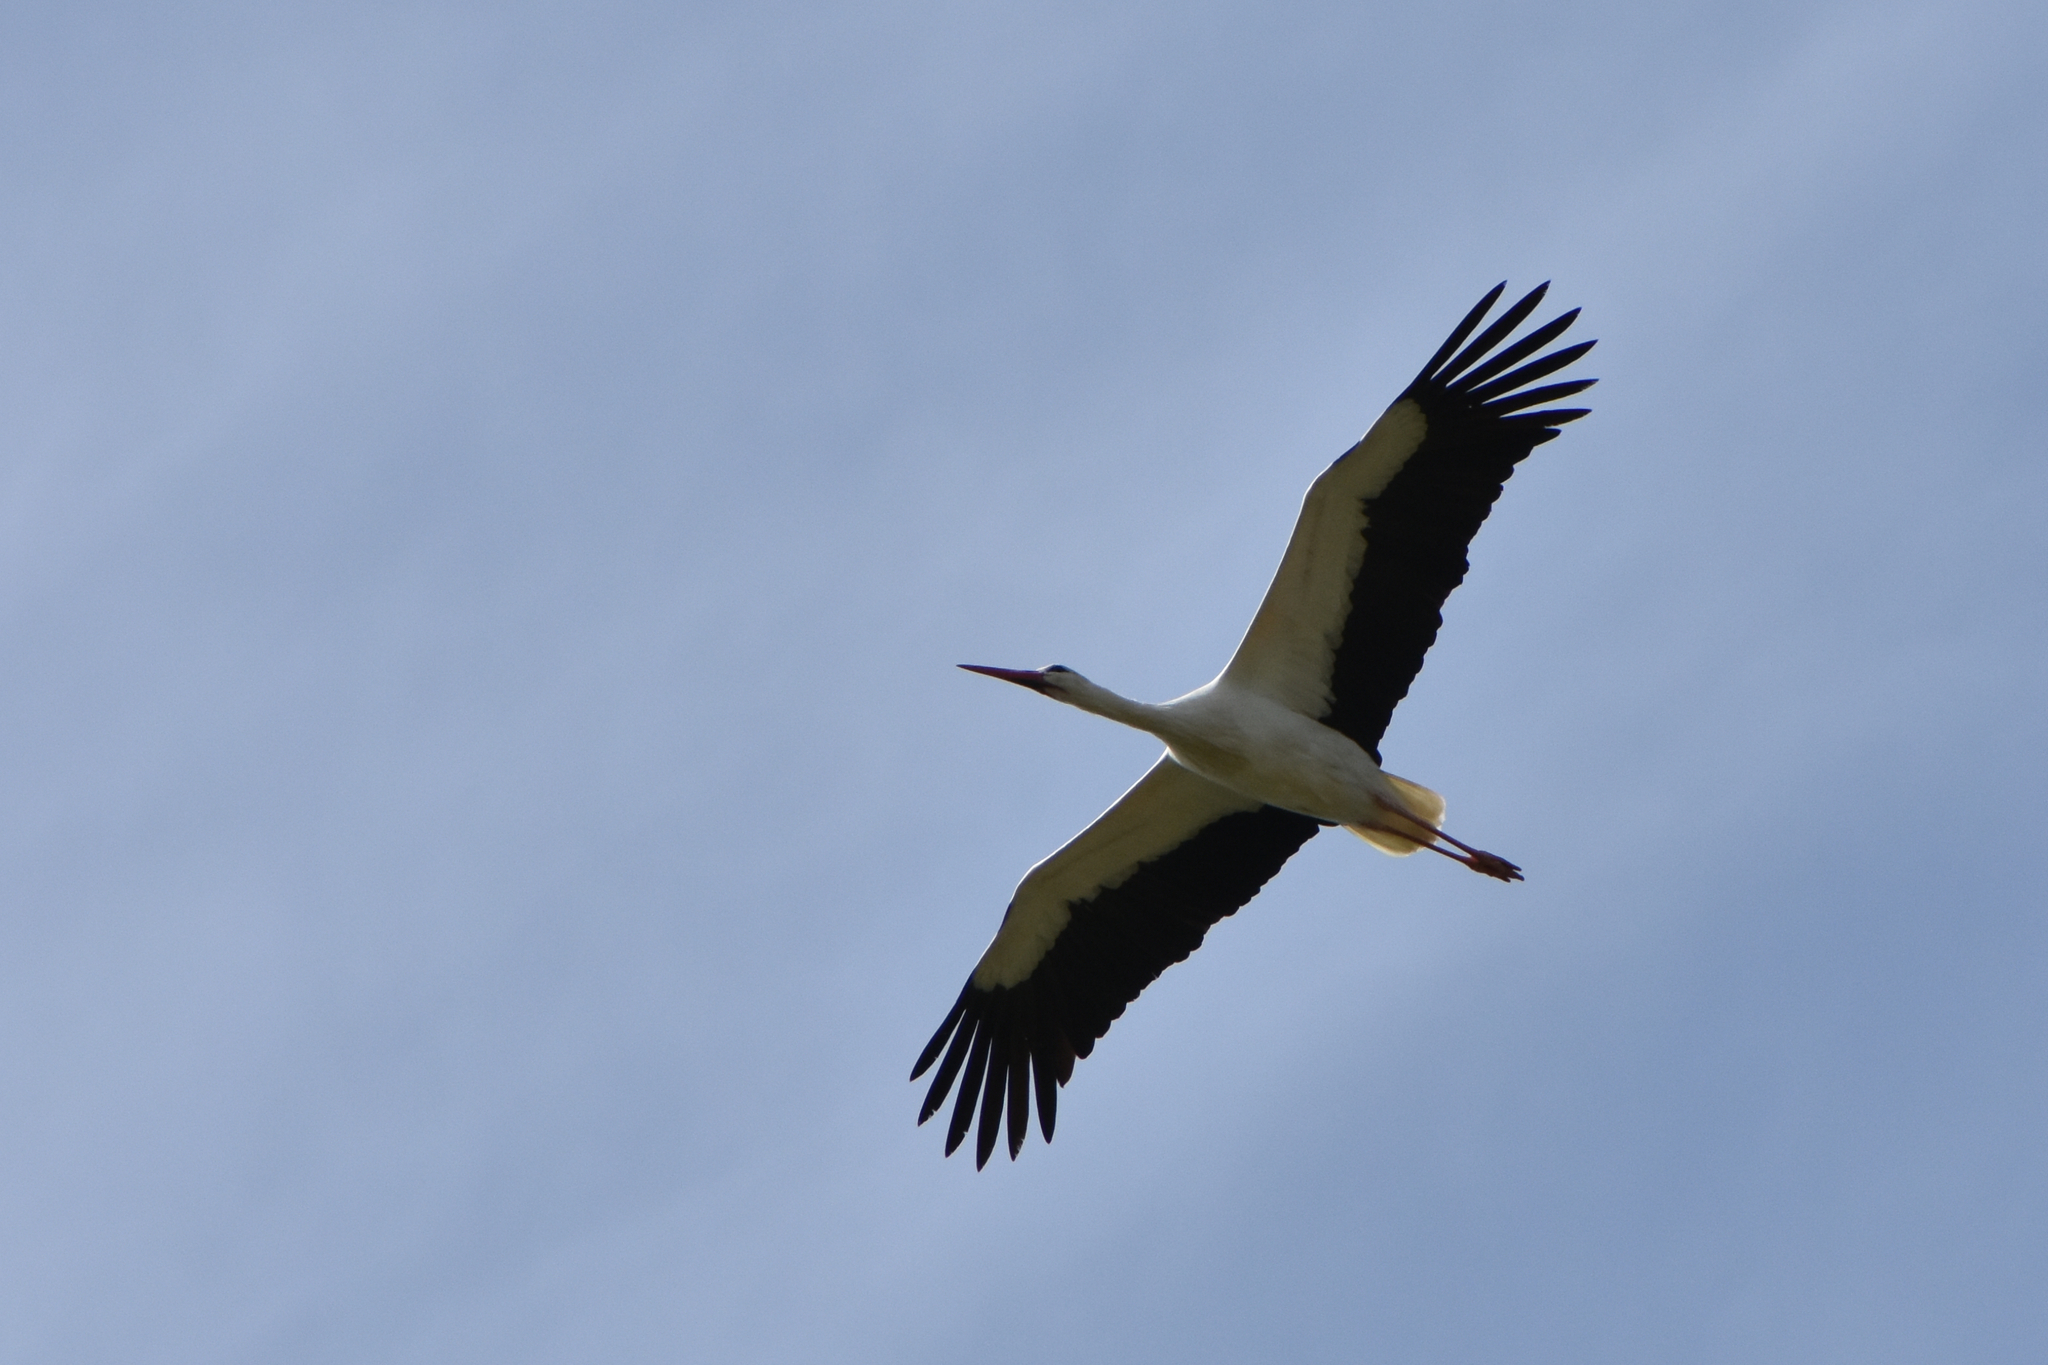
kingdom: Animalia
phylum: Chordata
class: Aves
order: Ciconiiformes
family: Ciconiidae
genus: Ciconia
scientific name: Ciconia ciconia
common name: White stork
